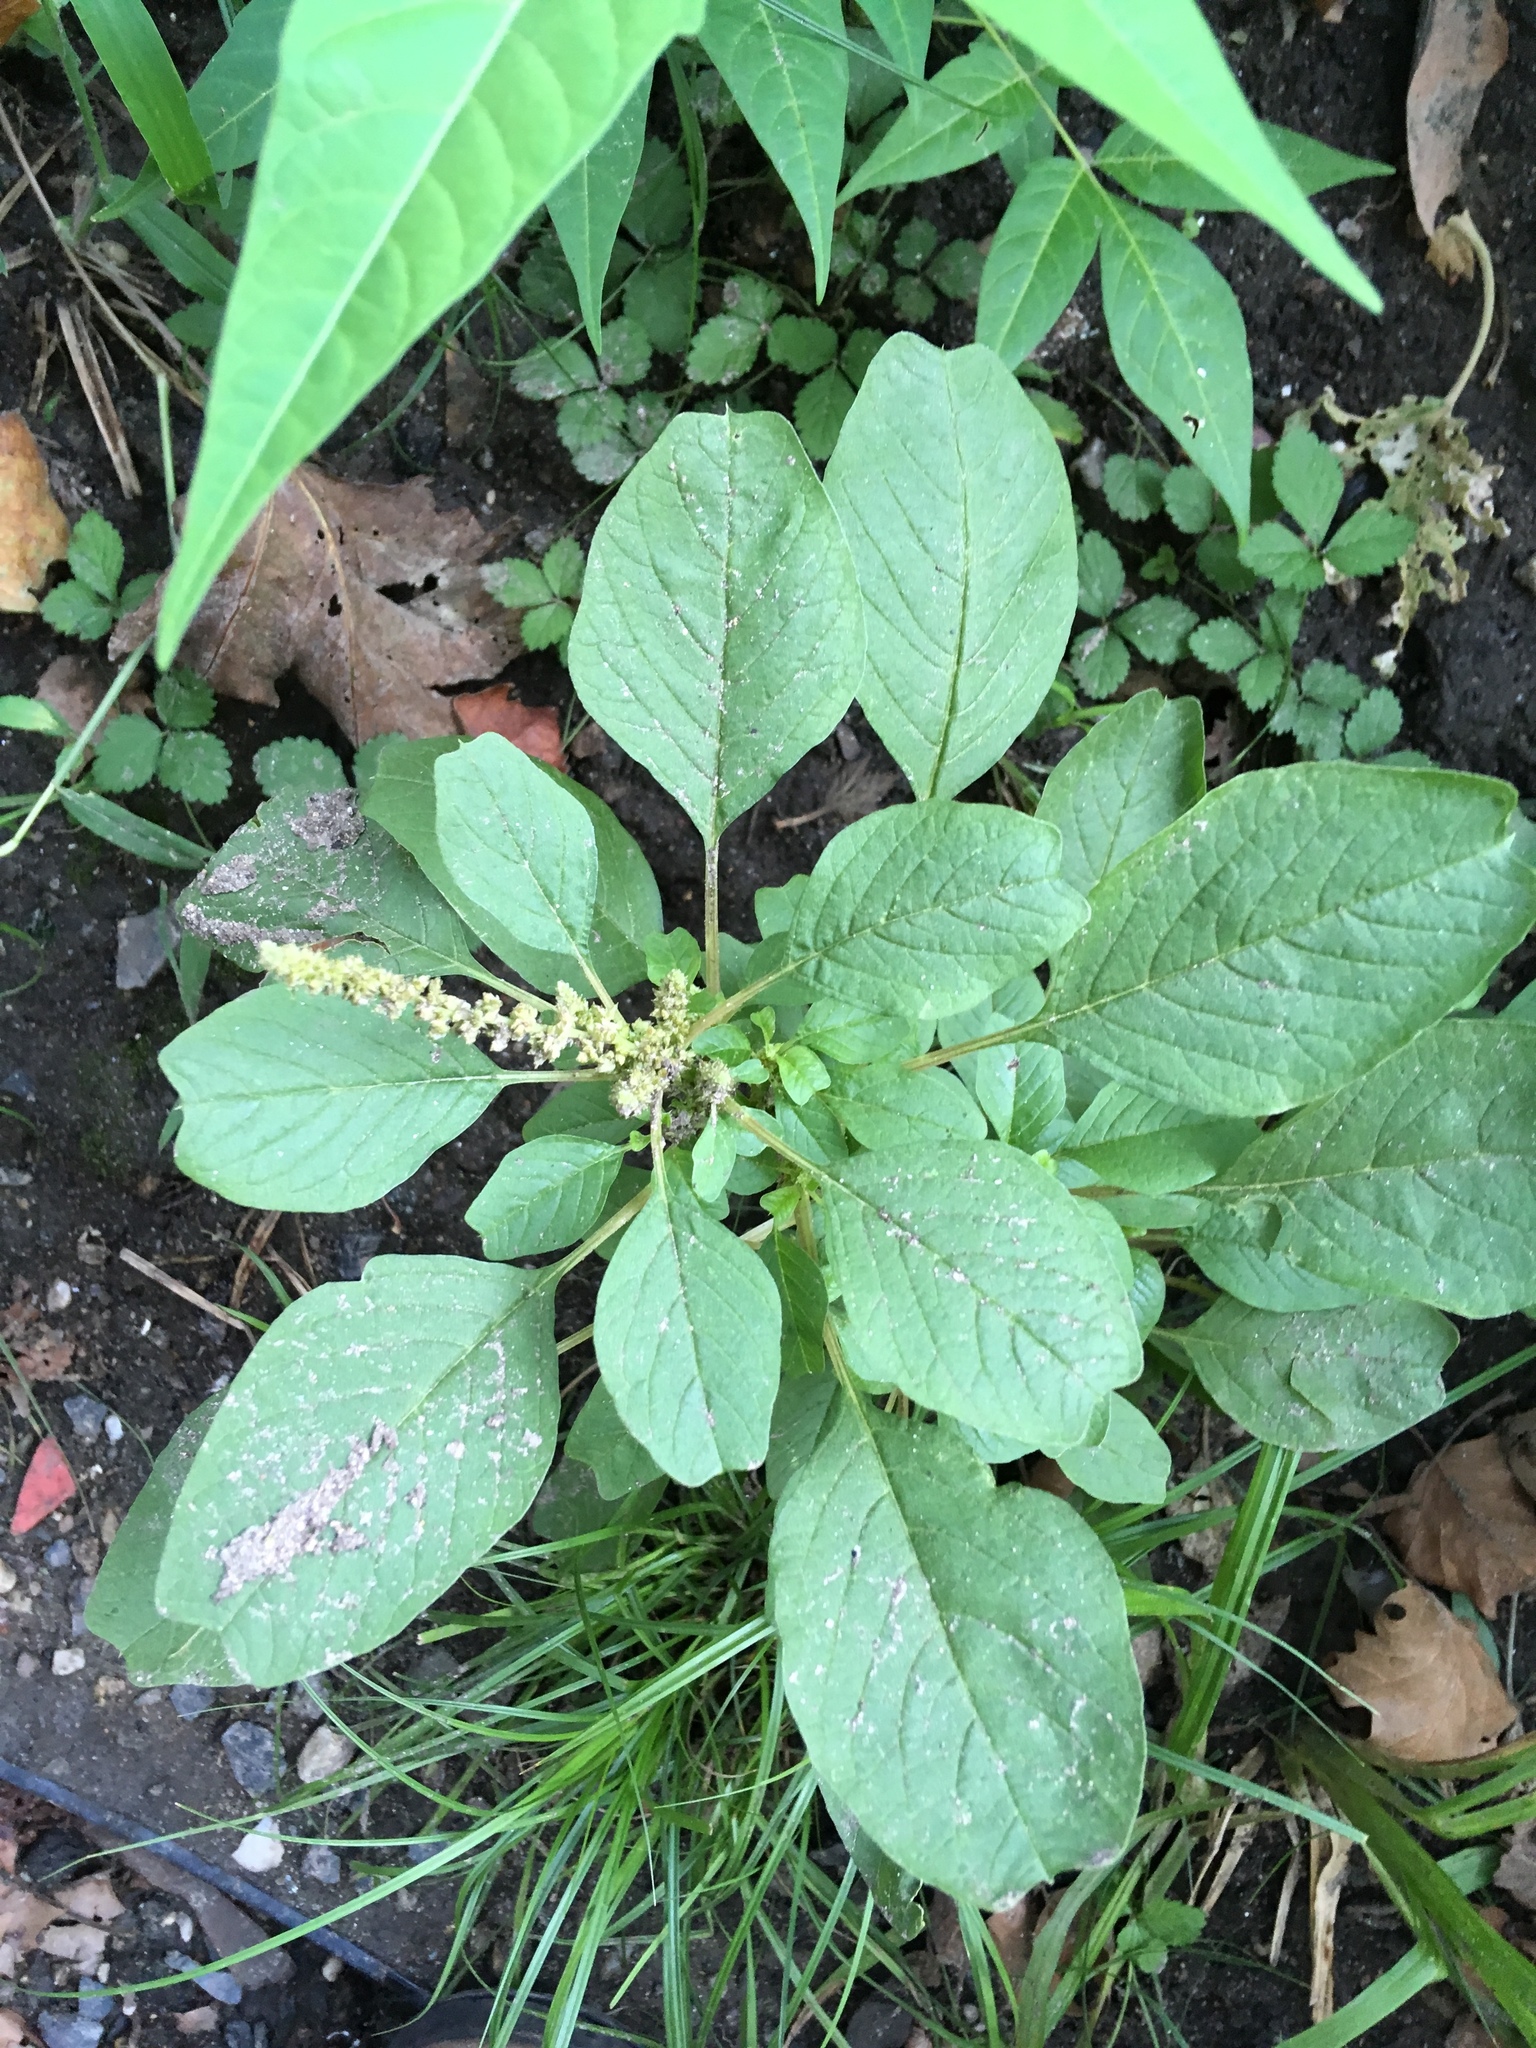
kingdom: Plantae
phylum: Tracheophyta
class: Magnoliopsida
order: Caryophyllales
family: Amaranthaceae
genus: Amaranthus
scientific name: Amaranthus blitum
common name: Purple amaranth
